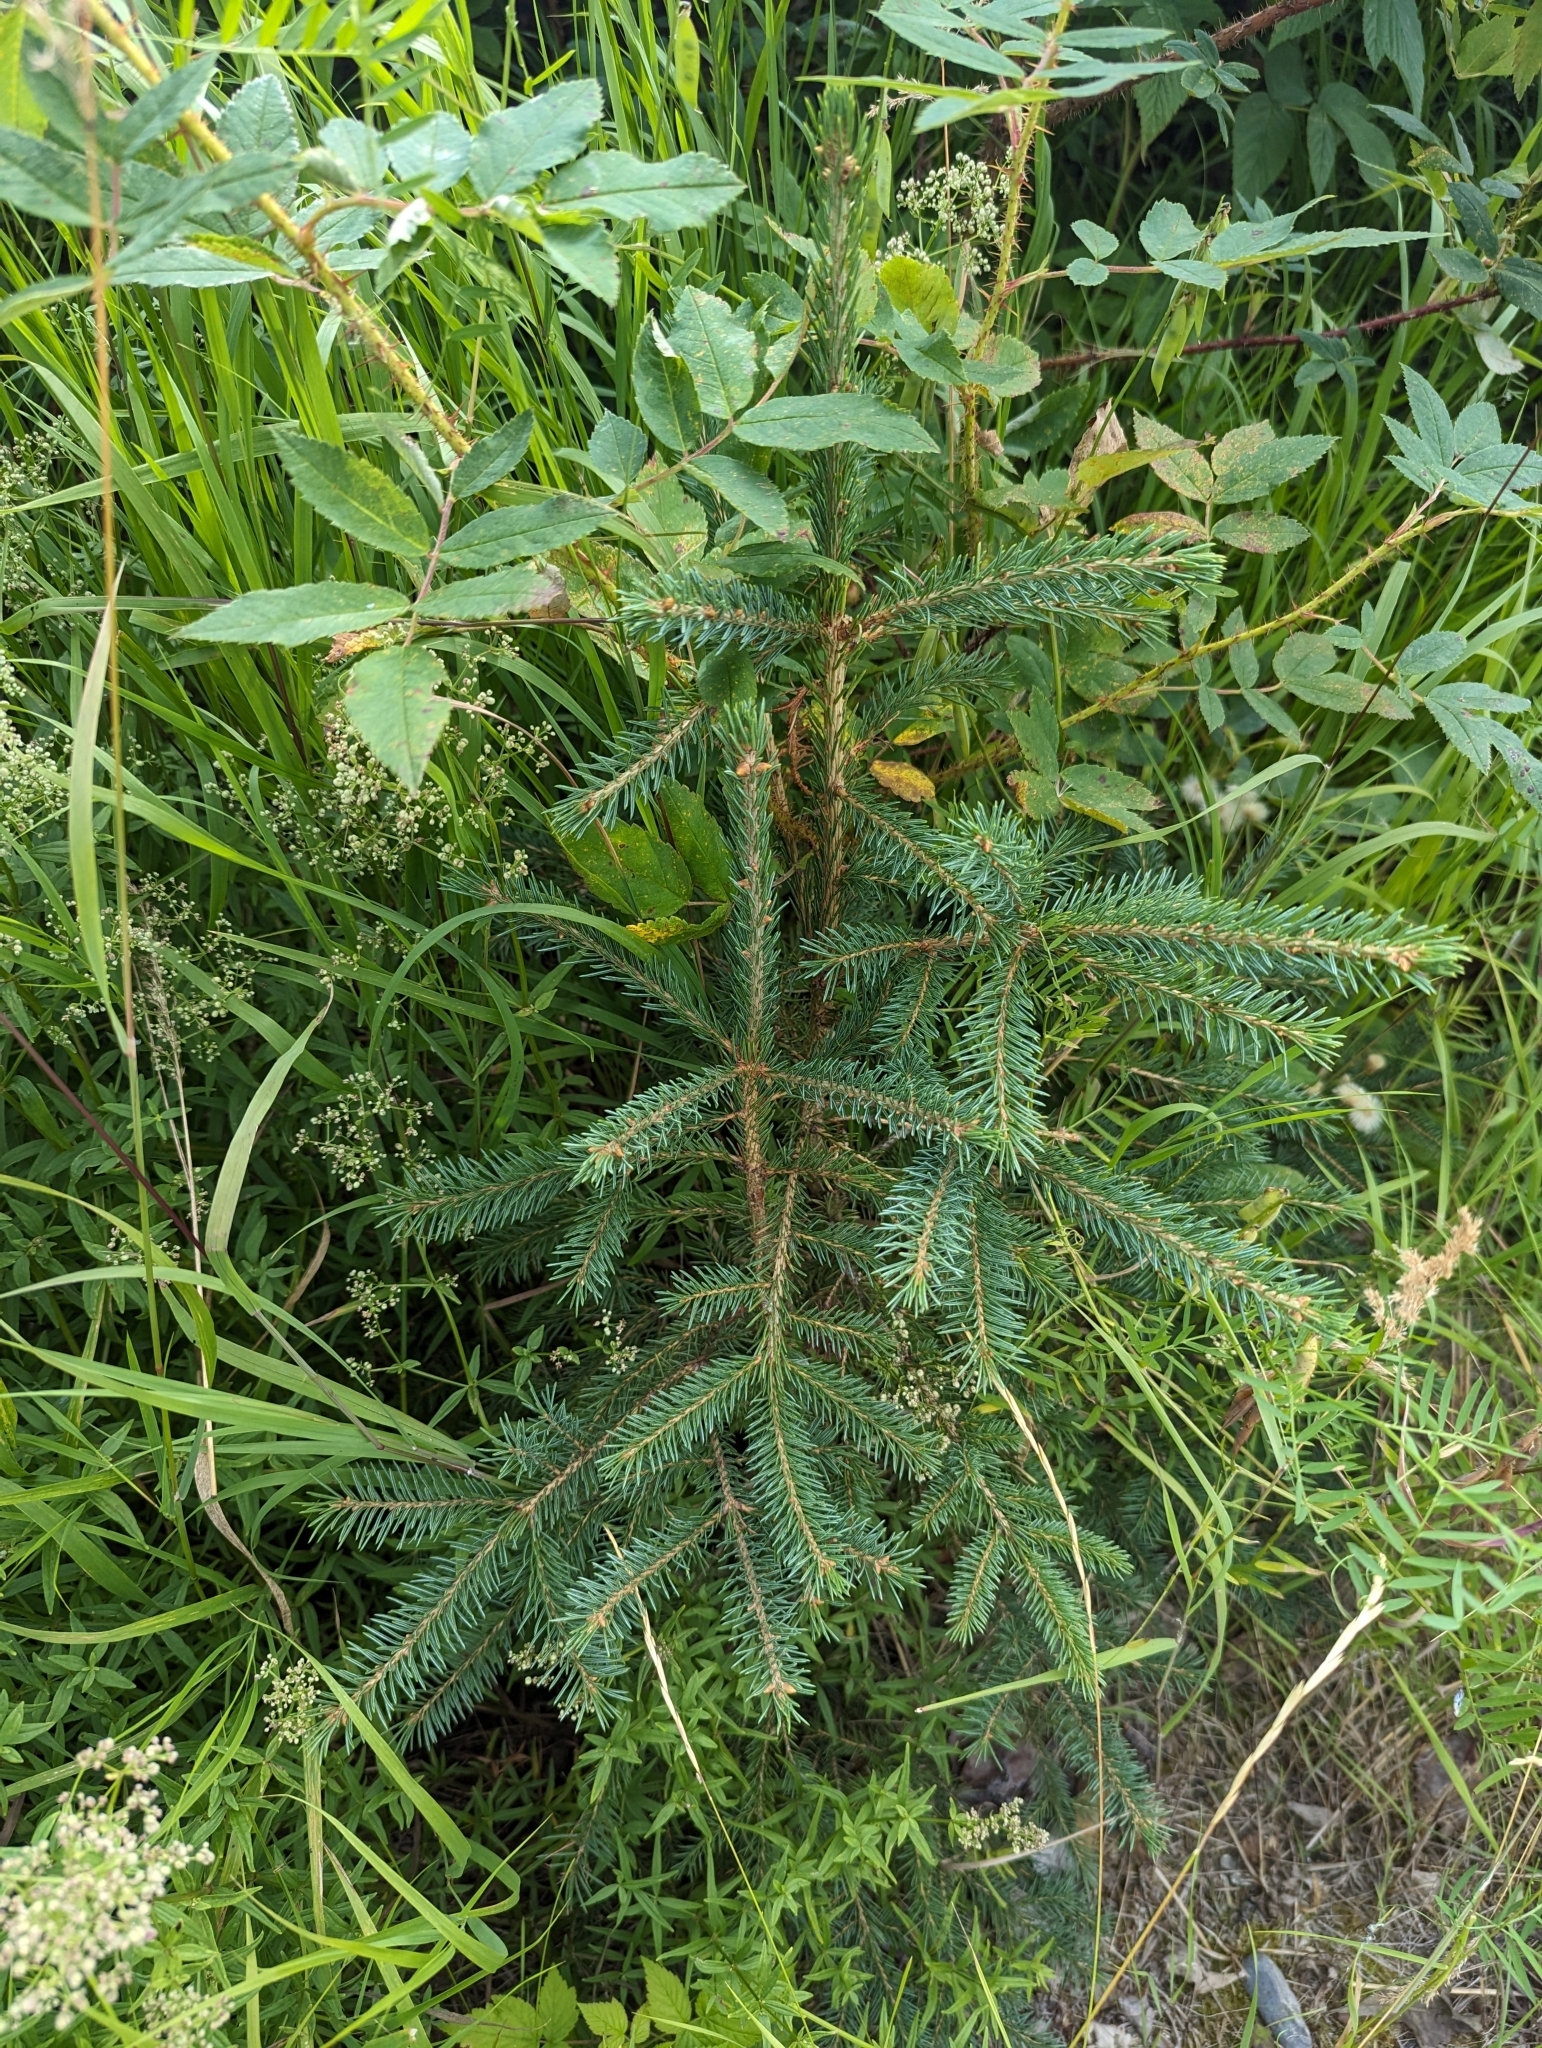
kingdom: Plantae
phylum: Tracheophyta
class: Pinopsida
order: Pinales
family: Pinaceae
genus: Picea
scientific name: Picea glauca
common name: White spruce
